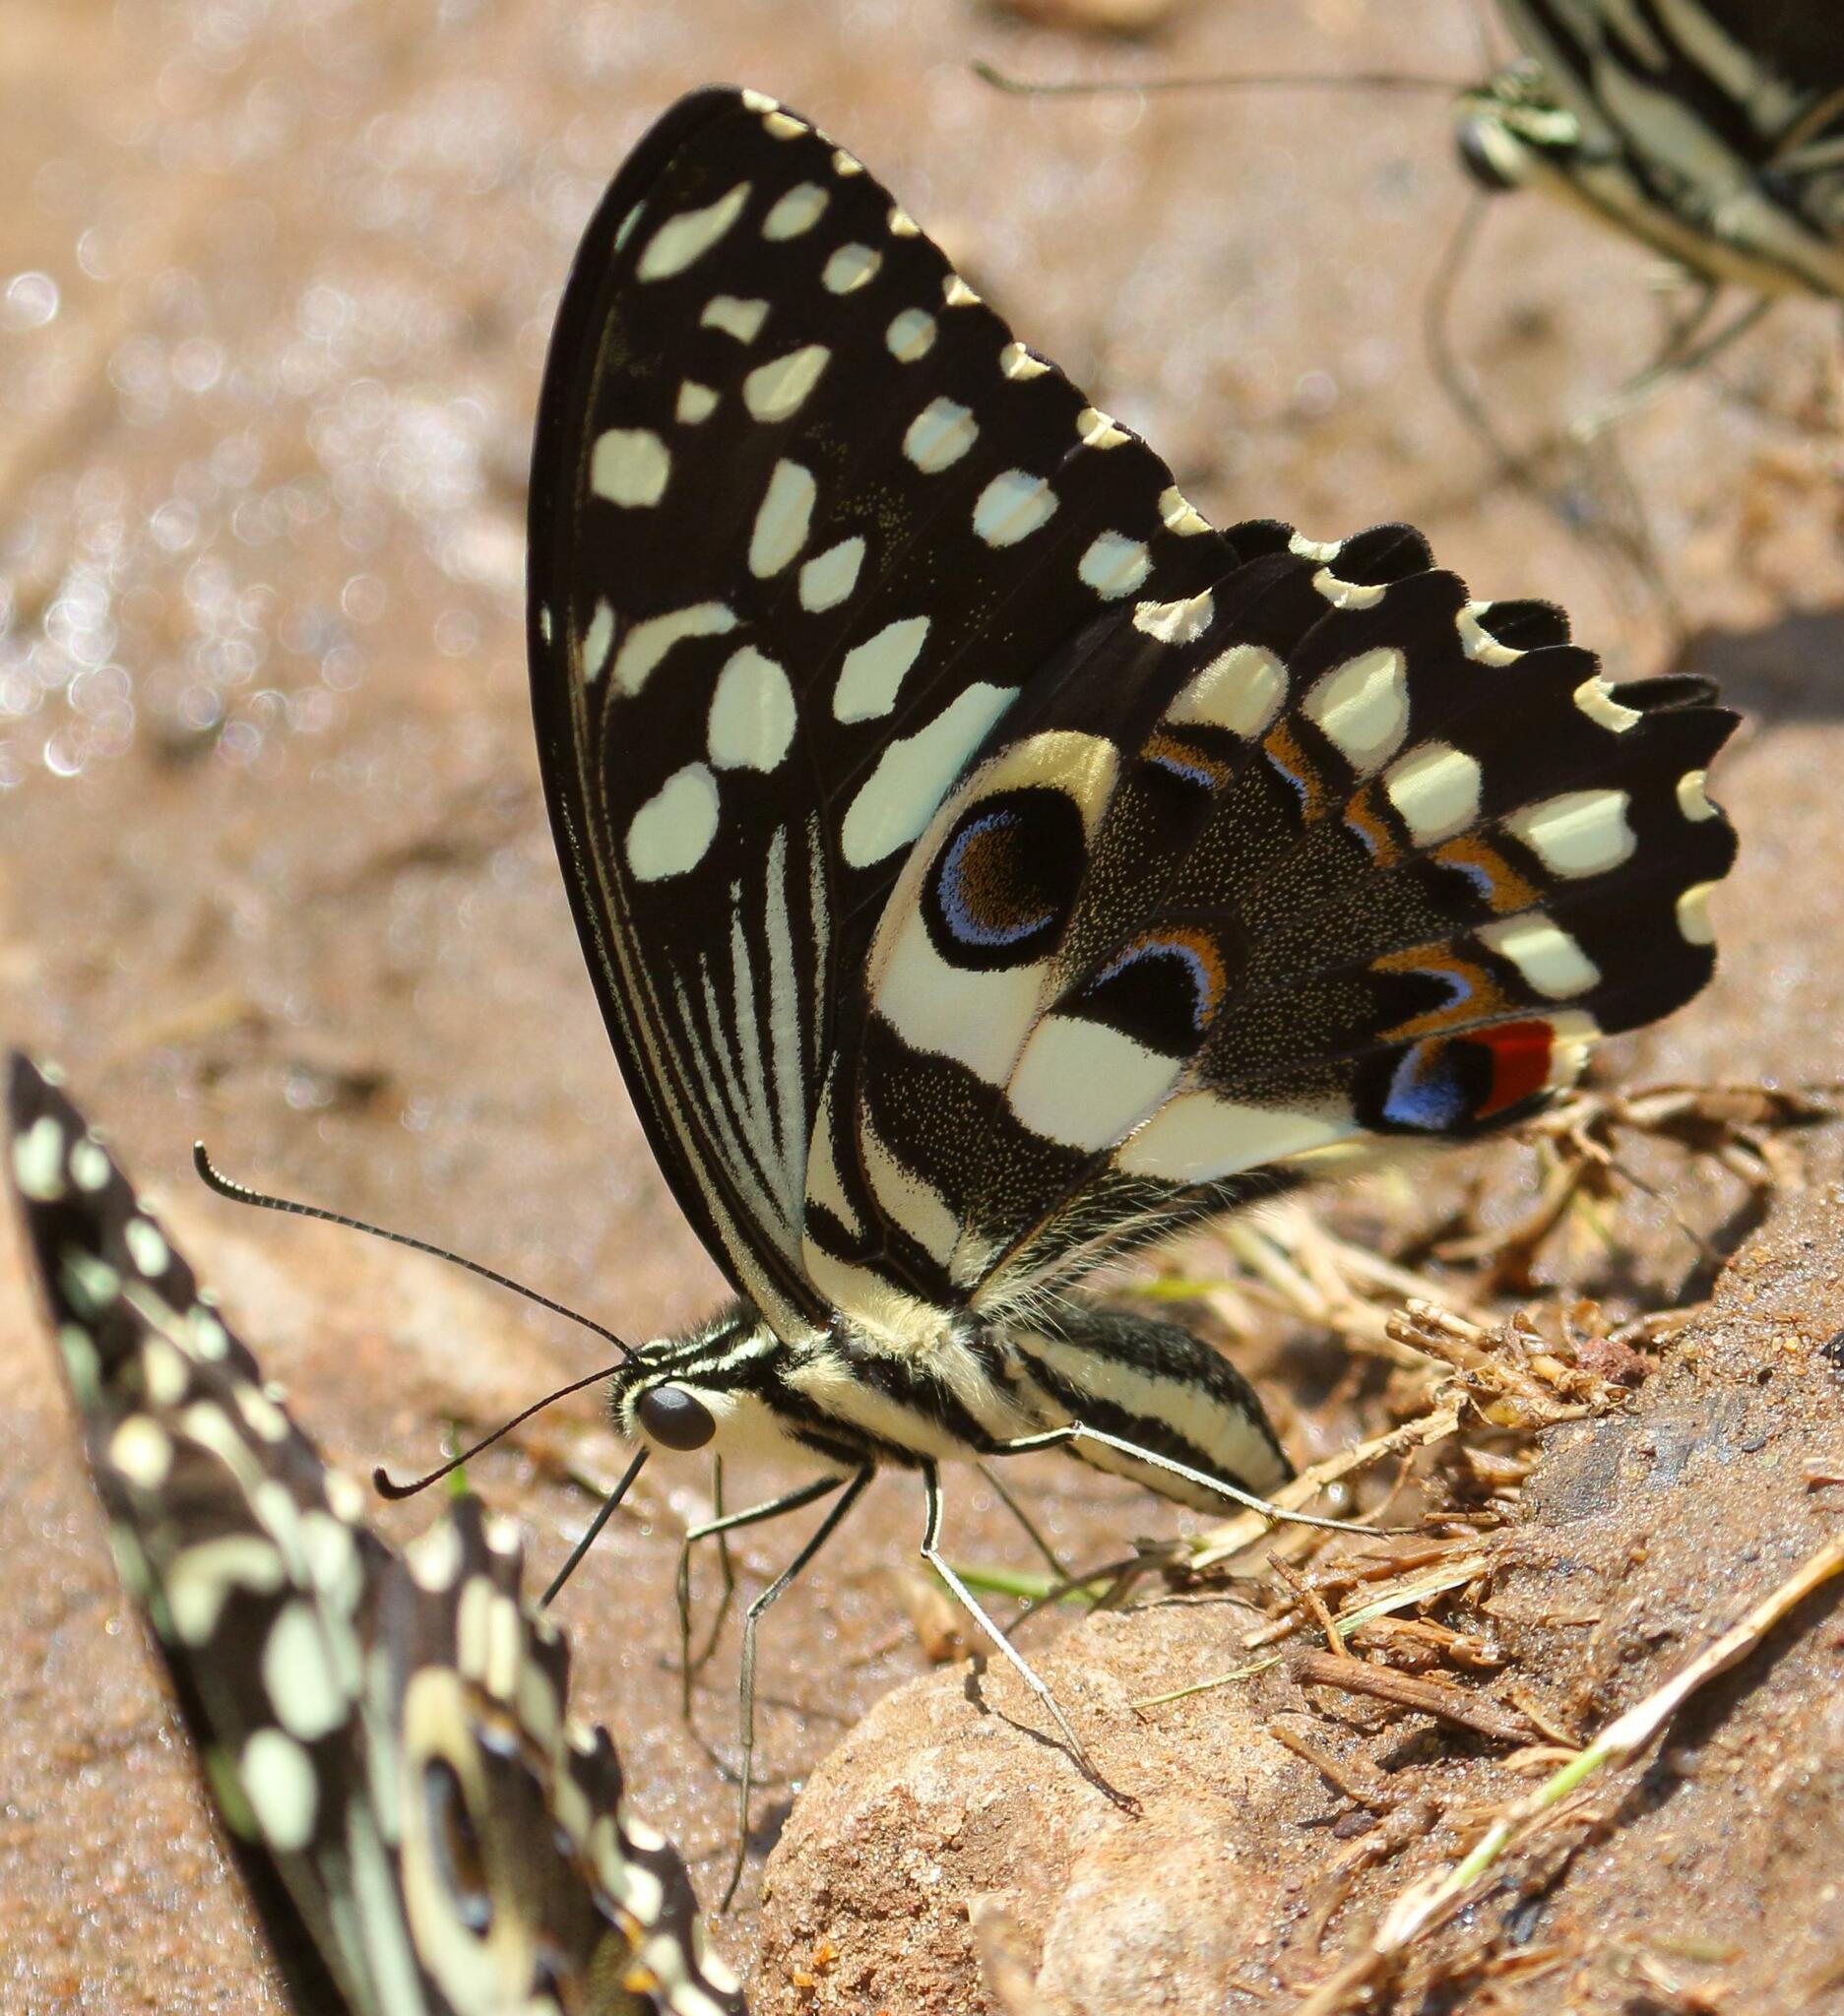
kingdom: Animalia
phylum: Arthropoda
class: Insecta
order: Lepidoptera
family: Papilionidae
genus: Papilio
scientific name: Papilio demodocus
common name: Christmas butterfly
